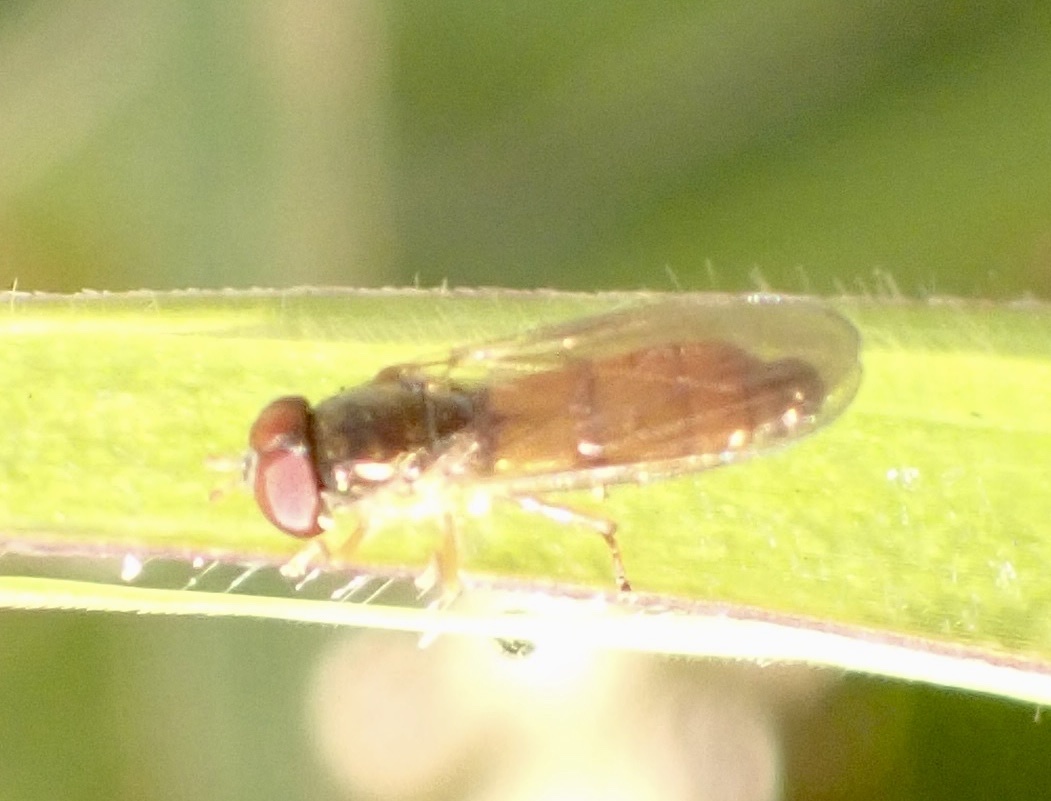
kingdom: Animalia
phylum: Arthropoda
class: Insecta
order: Diptera
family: Syrphidae
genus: Melanostoma
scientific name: Melanostoma apicale
